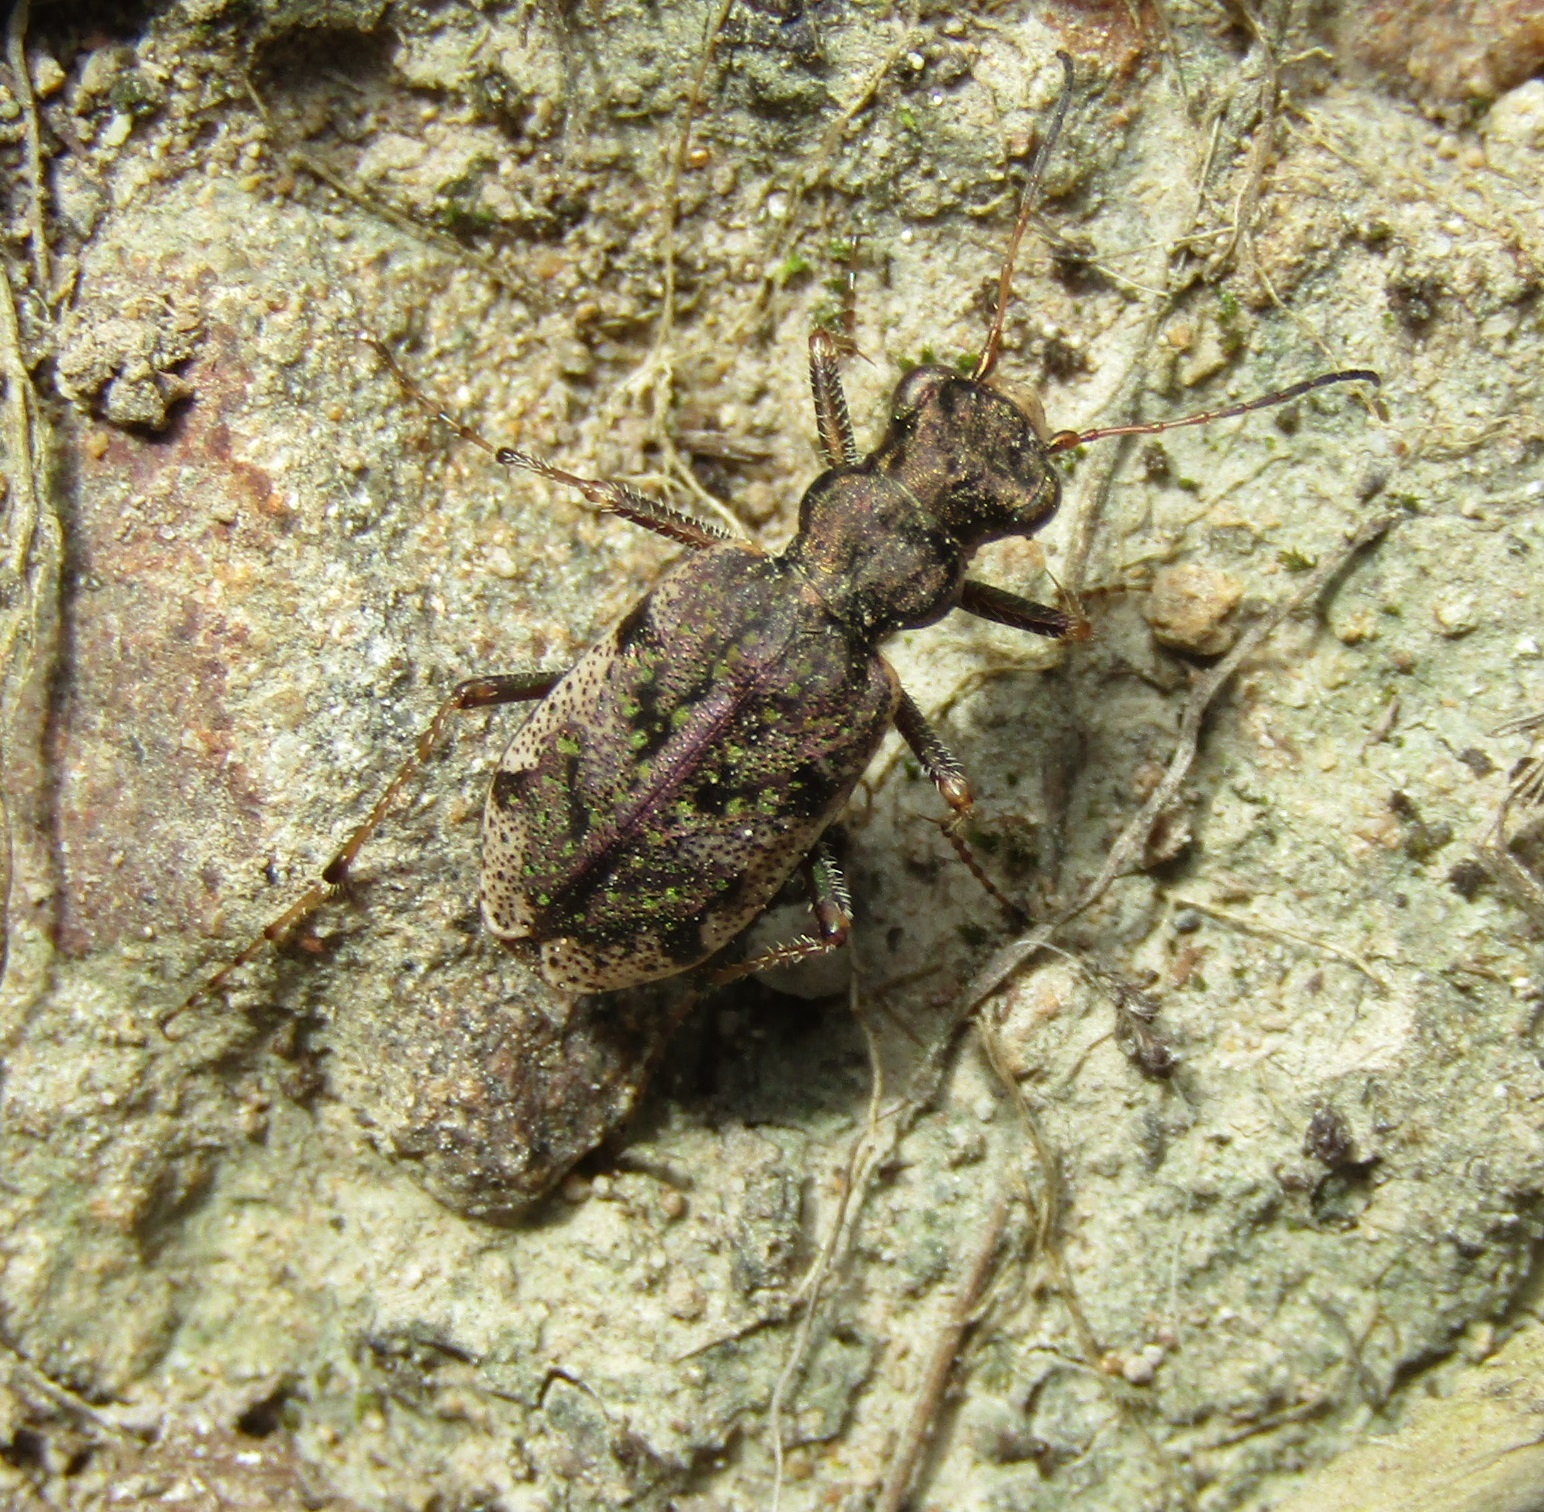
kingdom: Animalia
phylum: Arthropoda
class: Insecta
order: Coleoptera
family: Carabidae
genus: Neocicindela
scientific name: Neocicindela parryi
